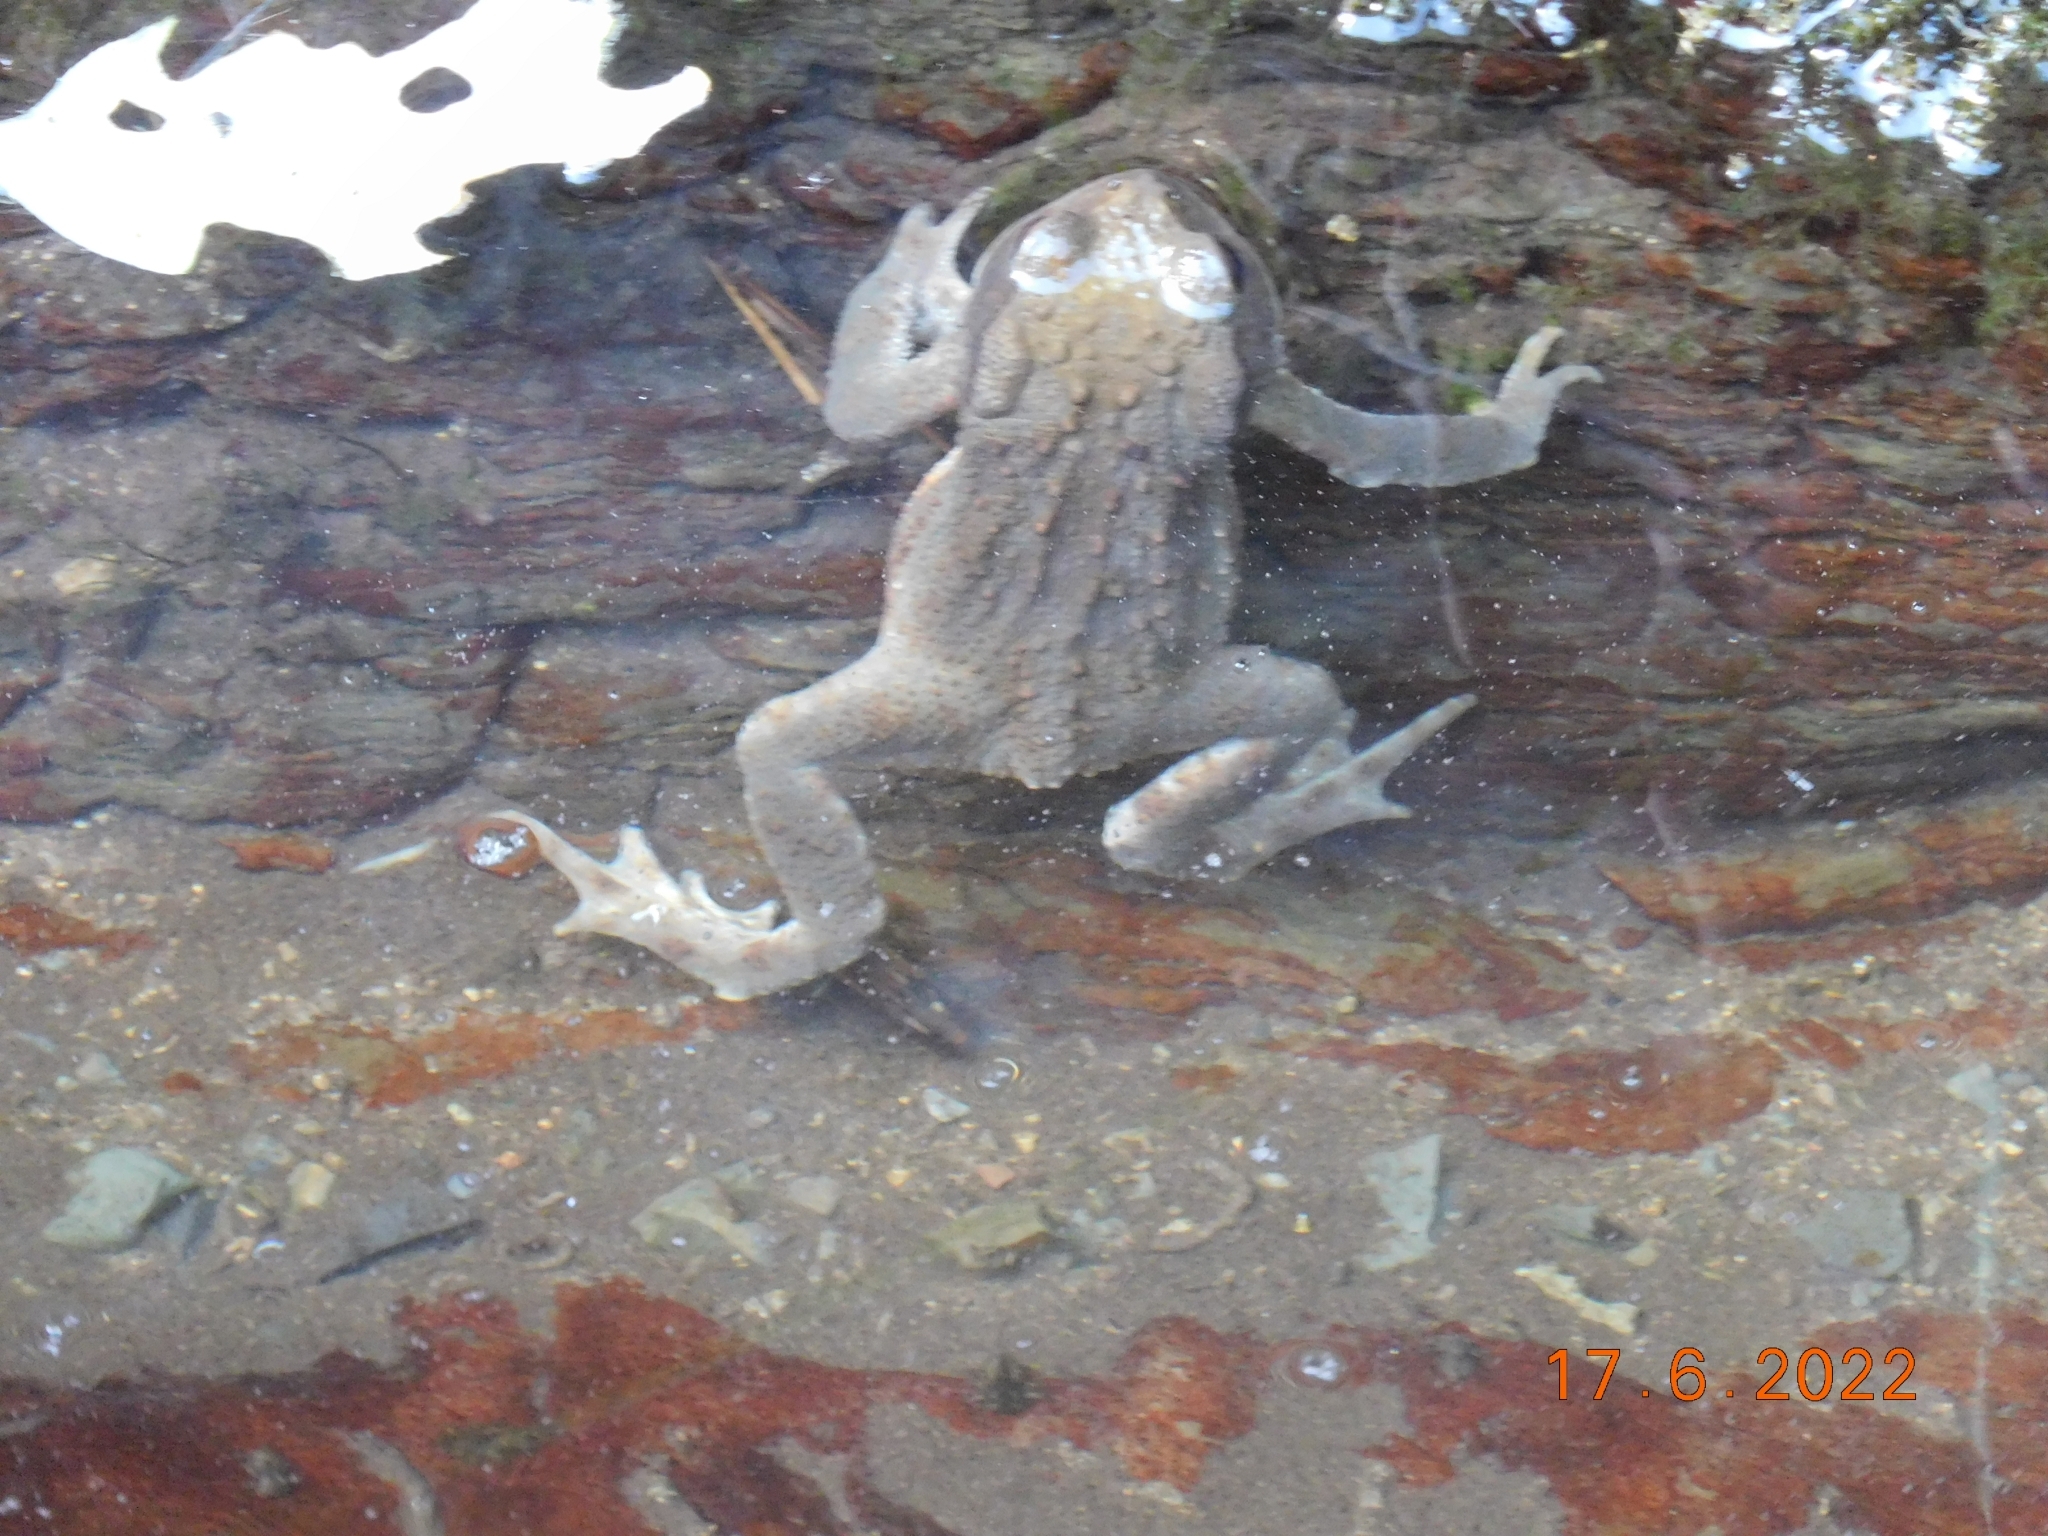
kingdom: Animalia
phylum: Chordata
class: Amphibia
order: Anura
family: Bufonidae
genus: Bufo
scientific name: Bufo bufo
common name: Common toad
